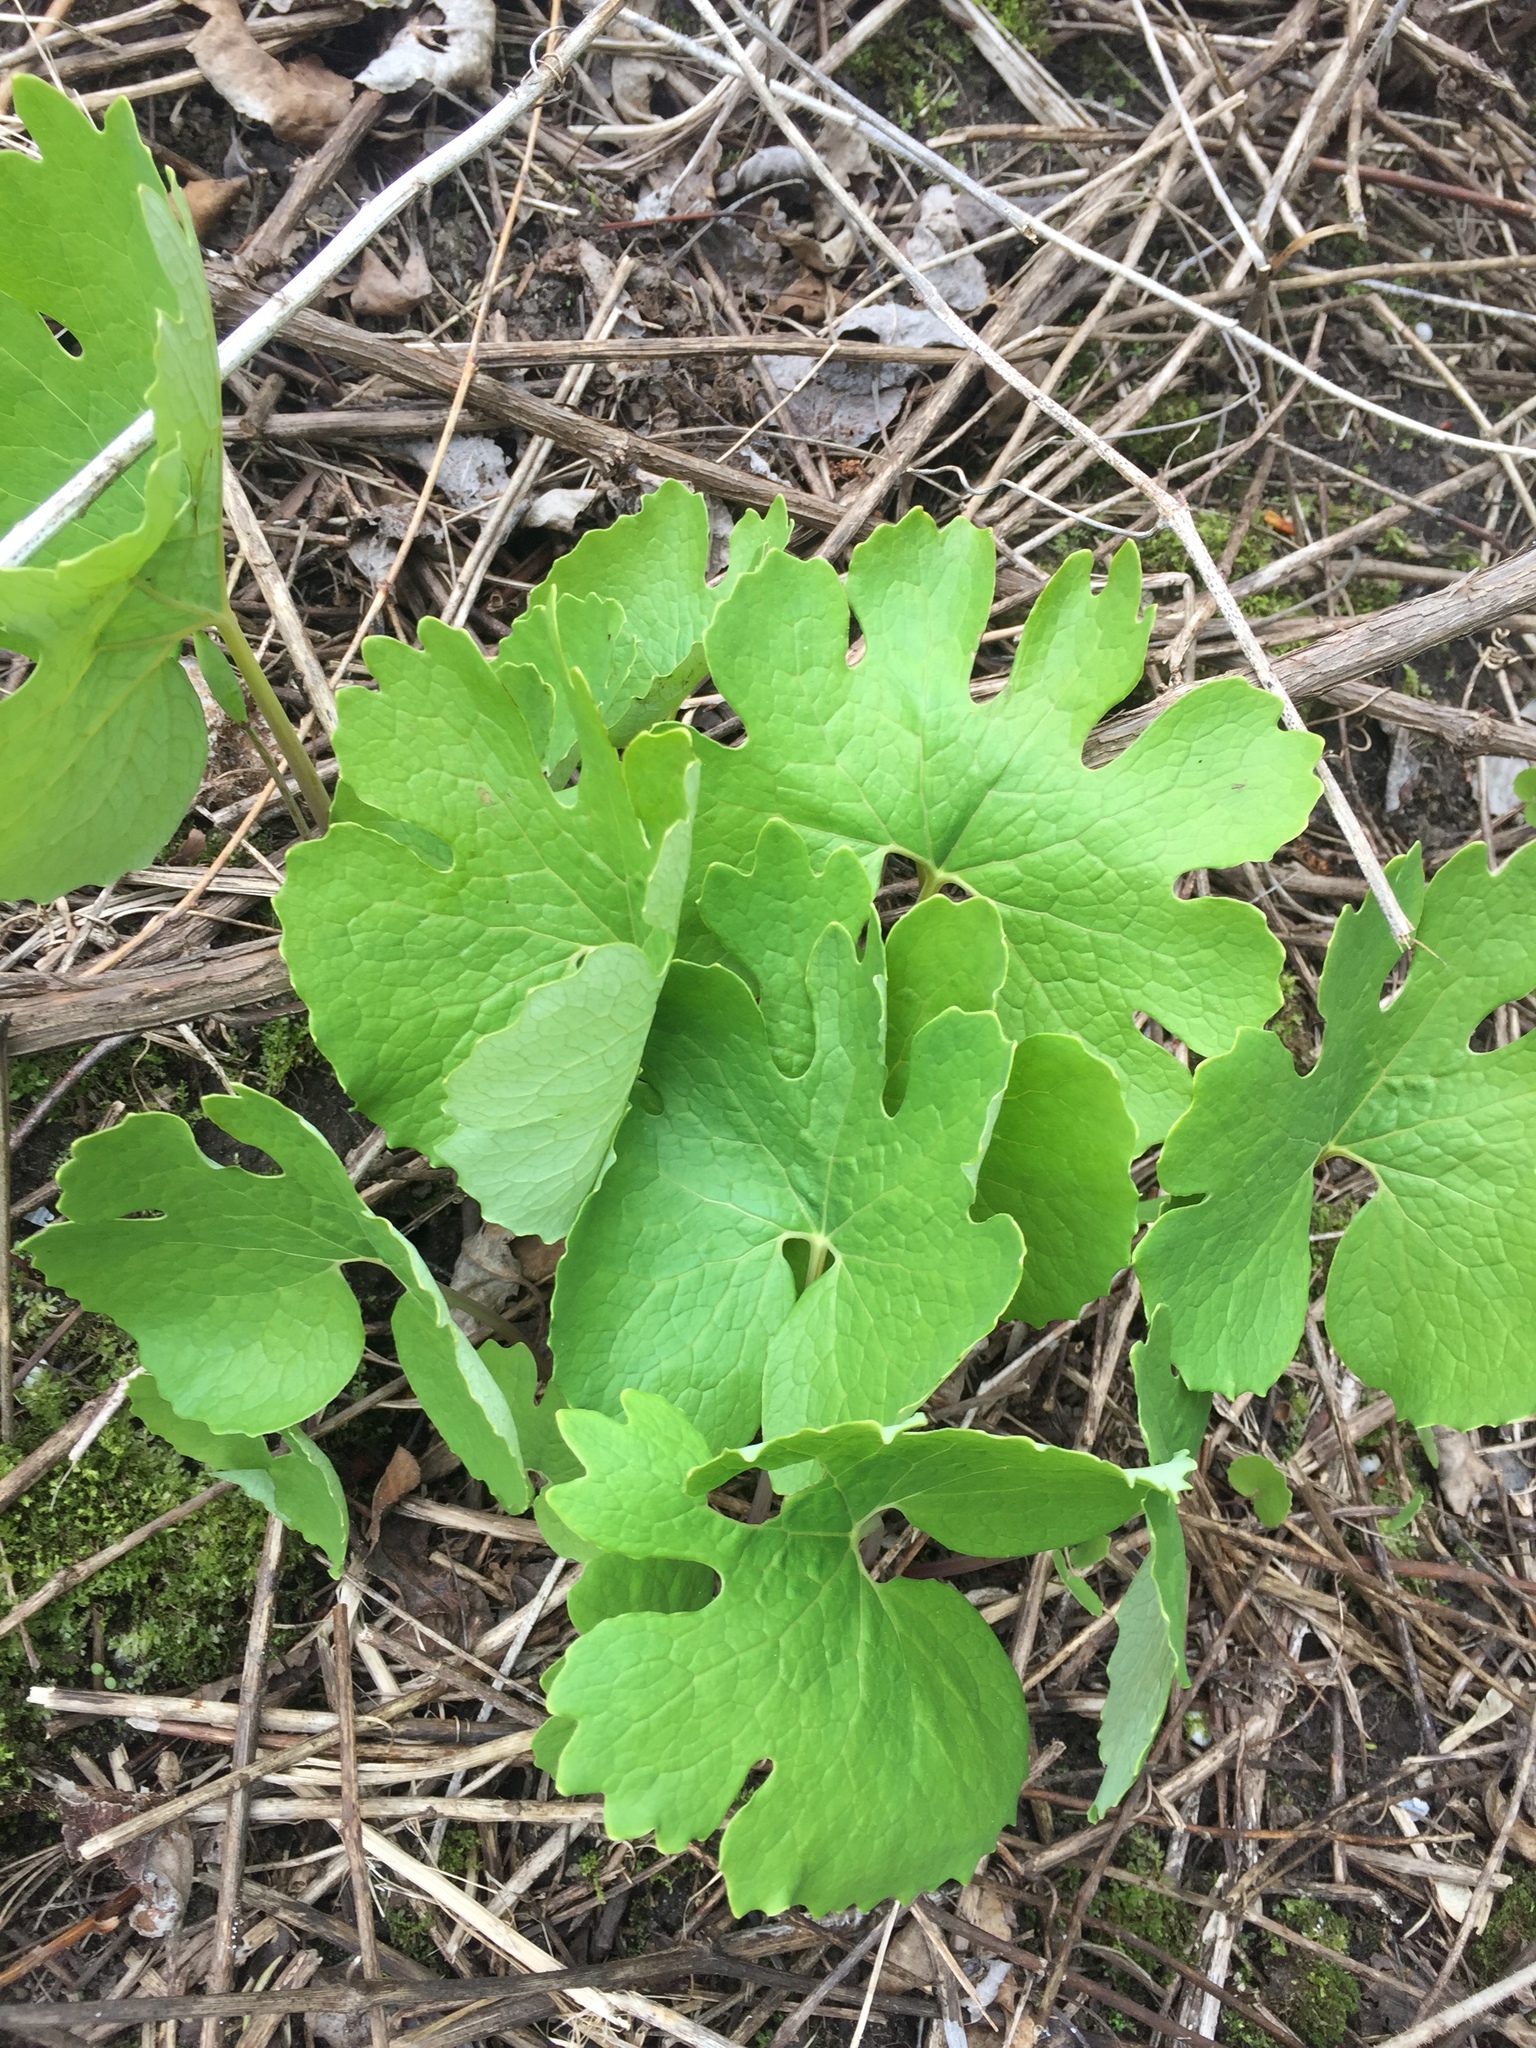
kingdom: Plantae
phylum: Tracheophyta
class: Magnoliopsida
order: Ranunculales
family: Papaveraceae
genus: Sanguinaria
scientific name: Sanguinaria canadensis
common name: Bloodroot
